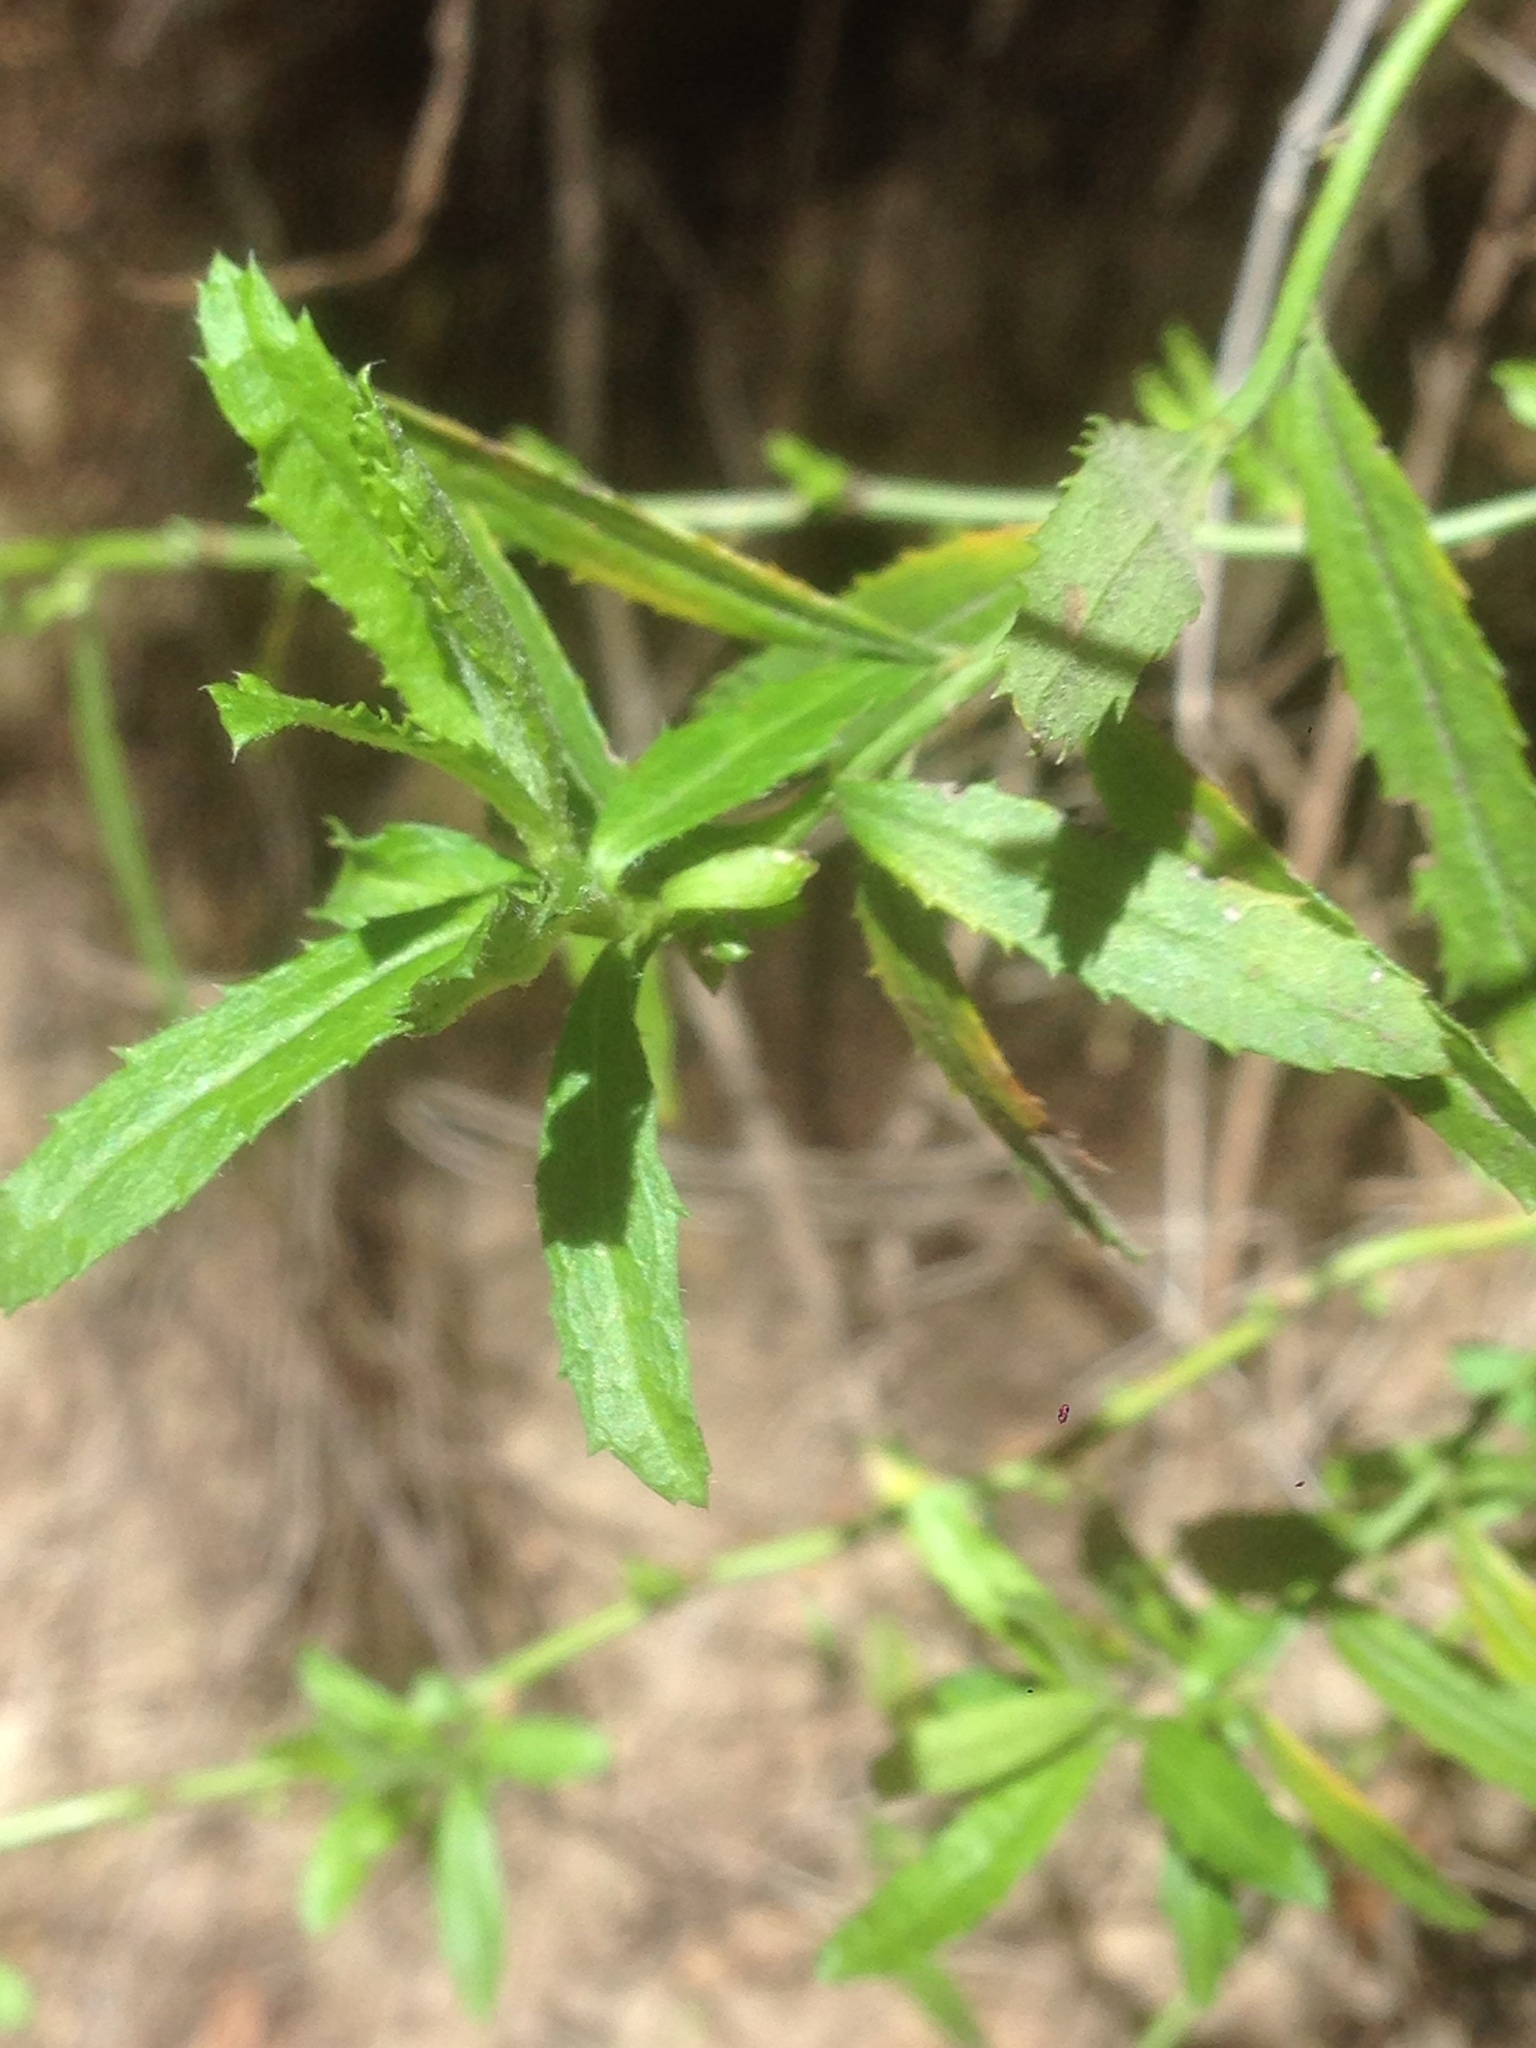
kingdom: Plantae
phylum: Tracheophyta
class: Magnoliopsida
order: Asterales
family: Asteraceae
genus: Baccharis
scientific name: Baccharis plummerae
